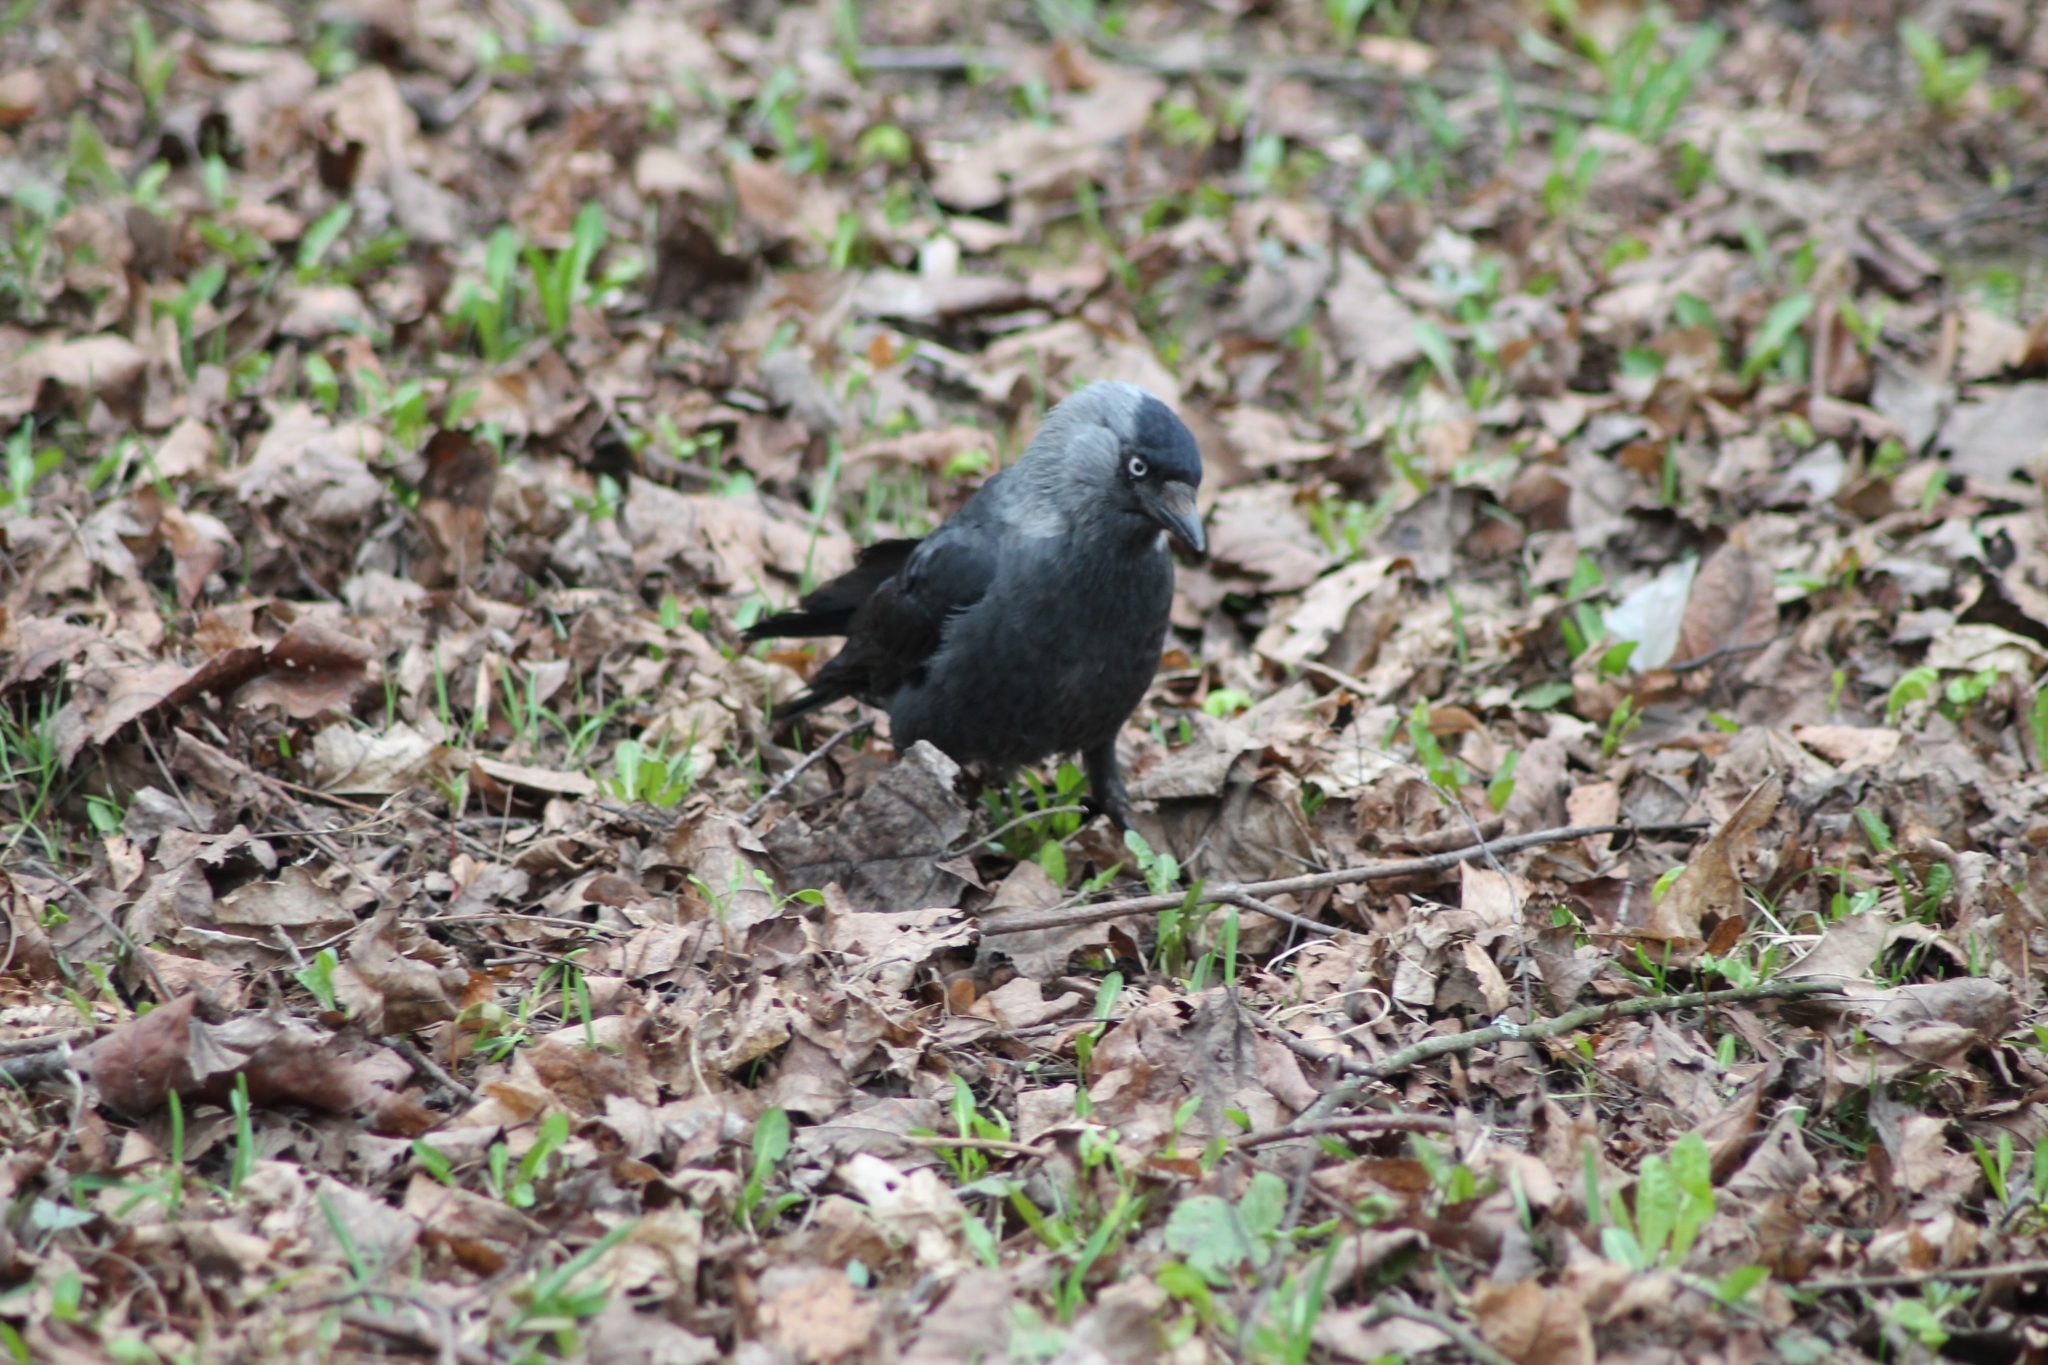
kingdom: Animalia
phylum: Chordata
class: Aves
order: Passeriformes
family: Corvidae
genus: Coloeus
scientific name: Coloeus monedula
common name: Western jackdaw
